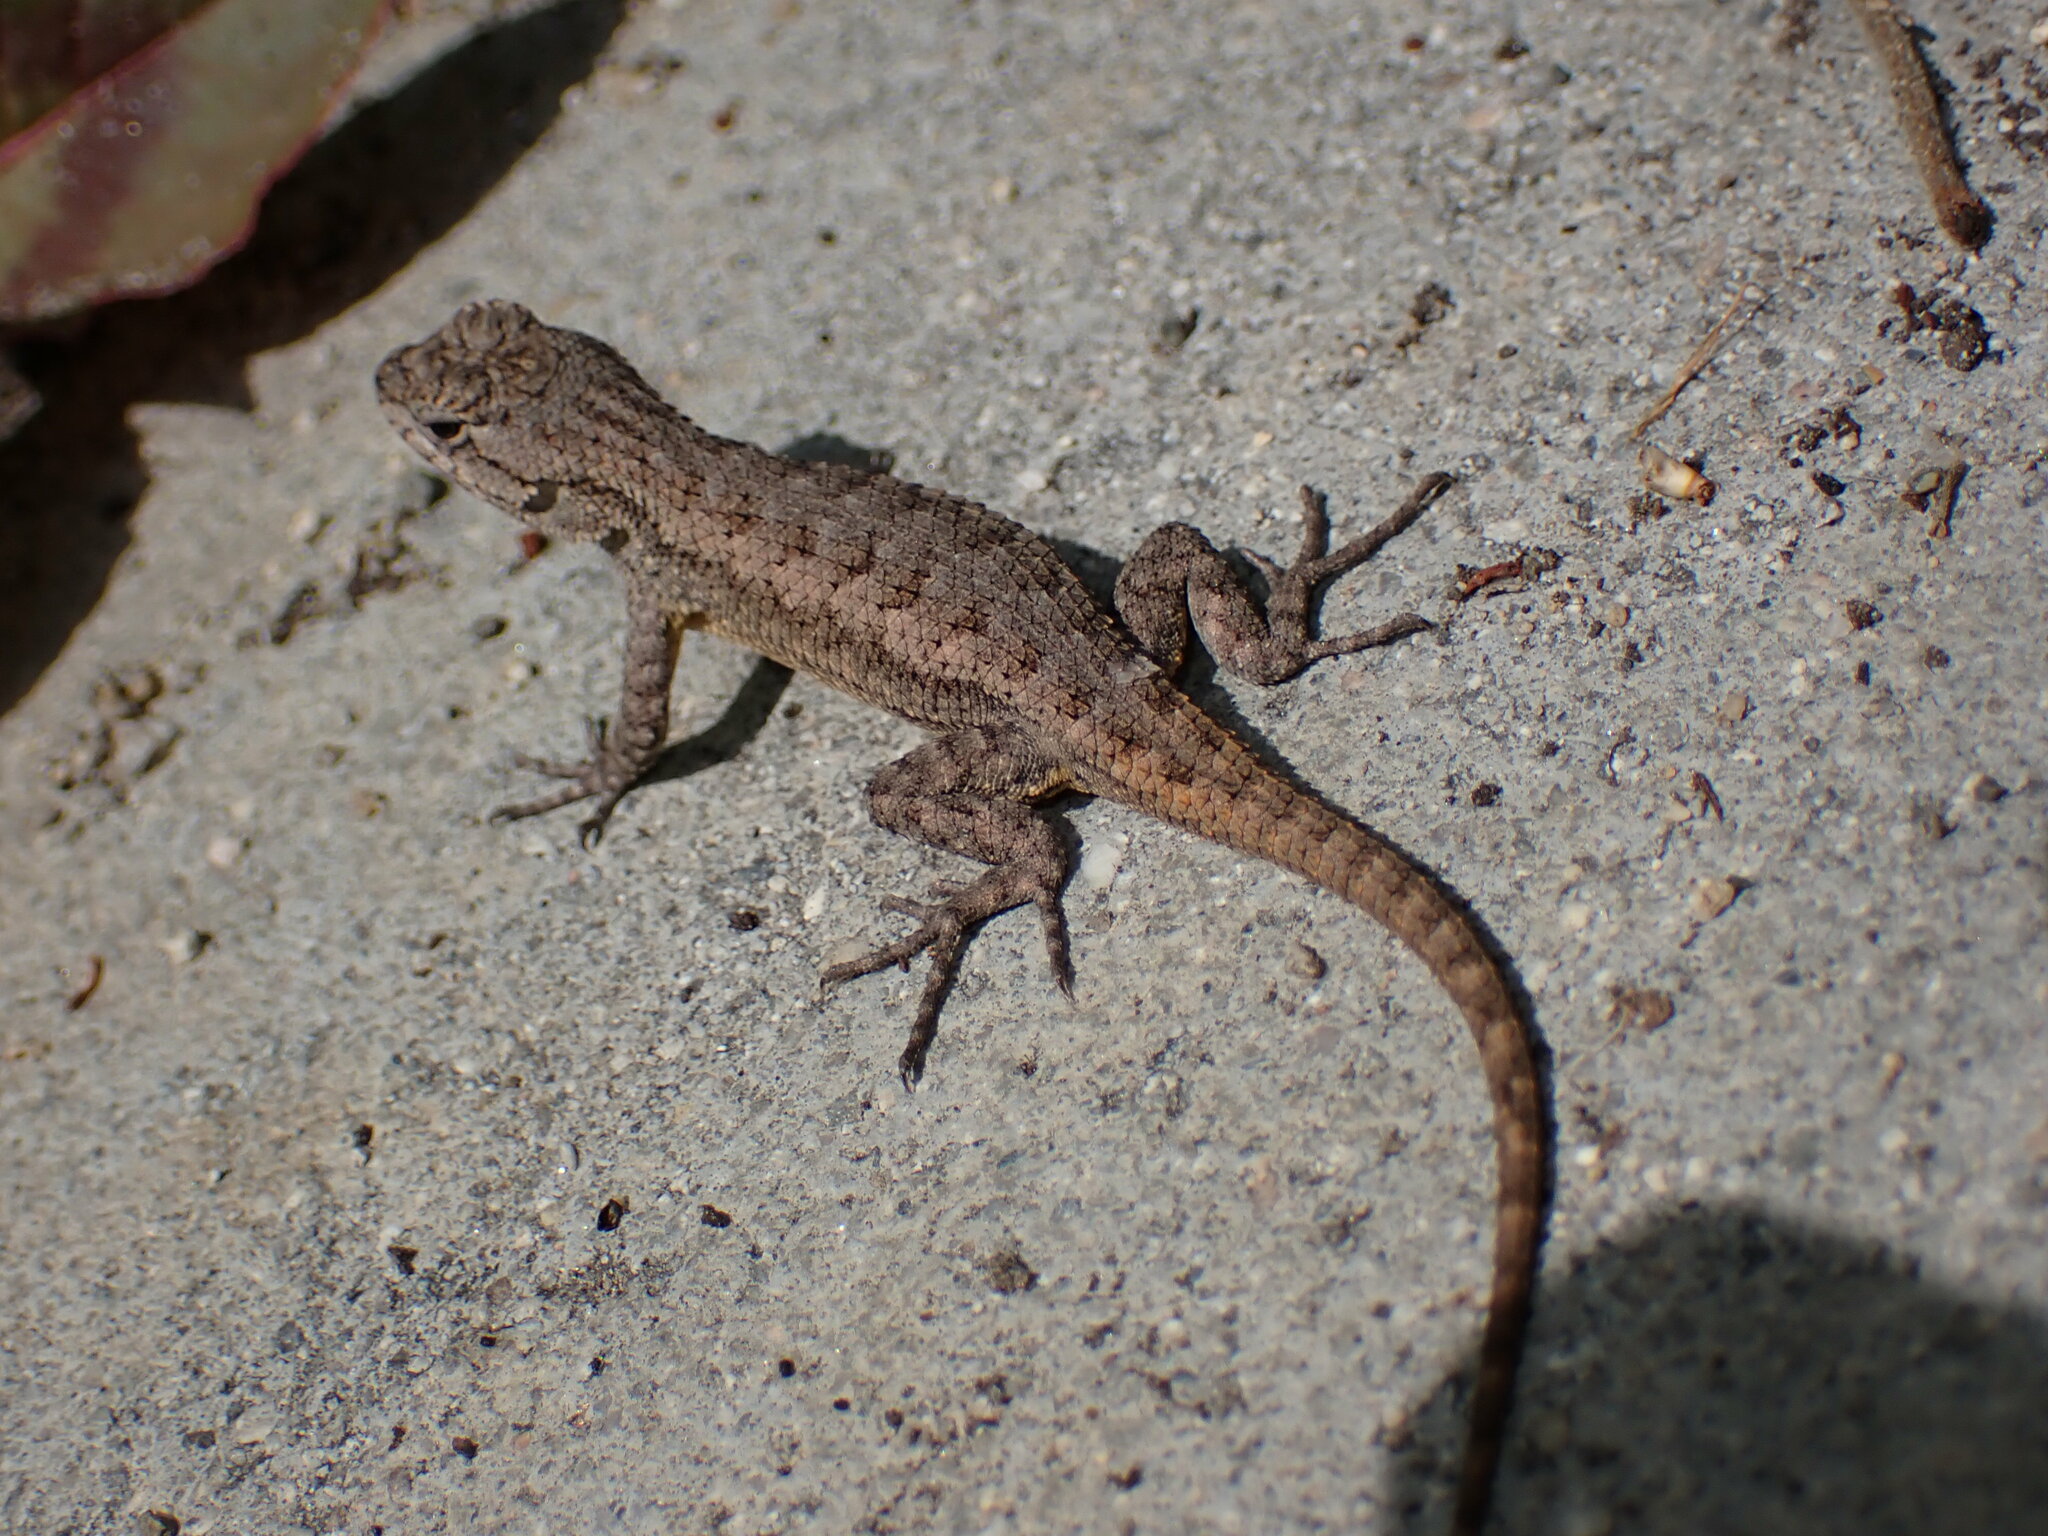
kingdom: Animalia
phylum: Chordata
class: Squamata
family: Phrynosomatidae
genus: Sceloporus
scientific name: Sceloporus occidentalis
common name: Western fence lizard
